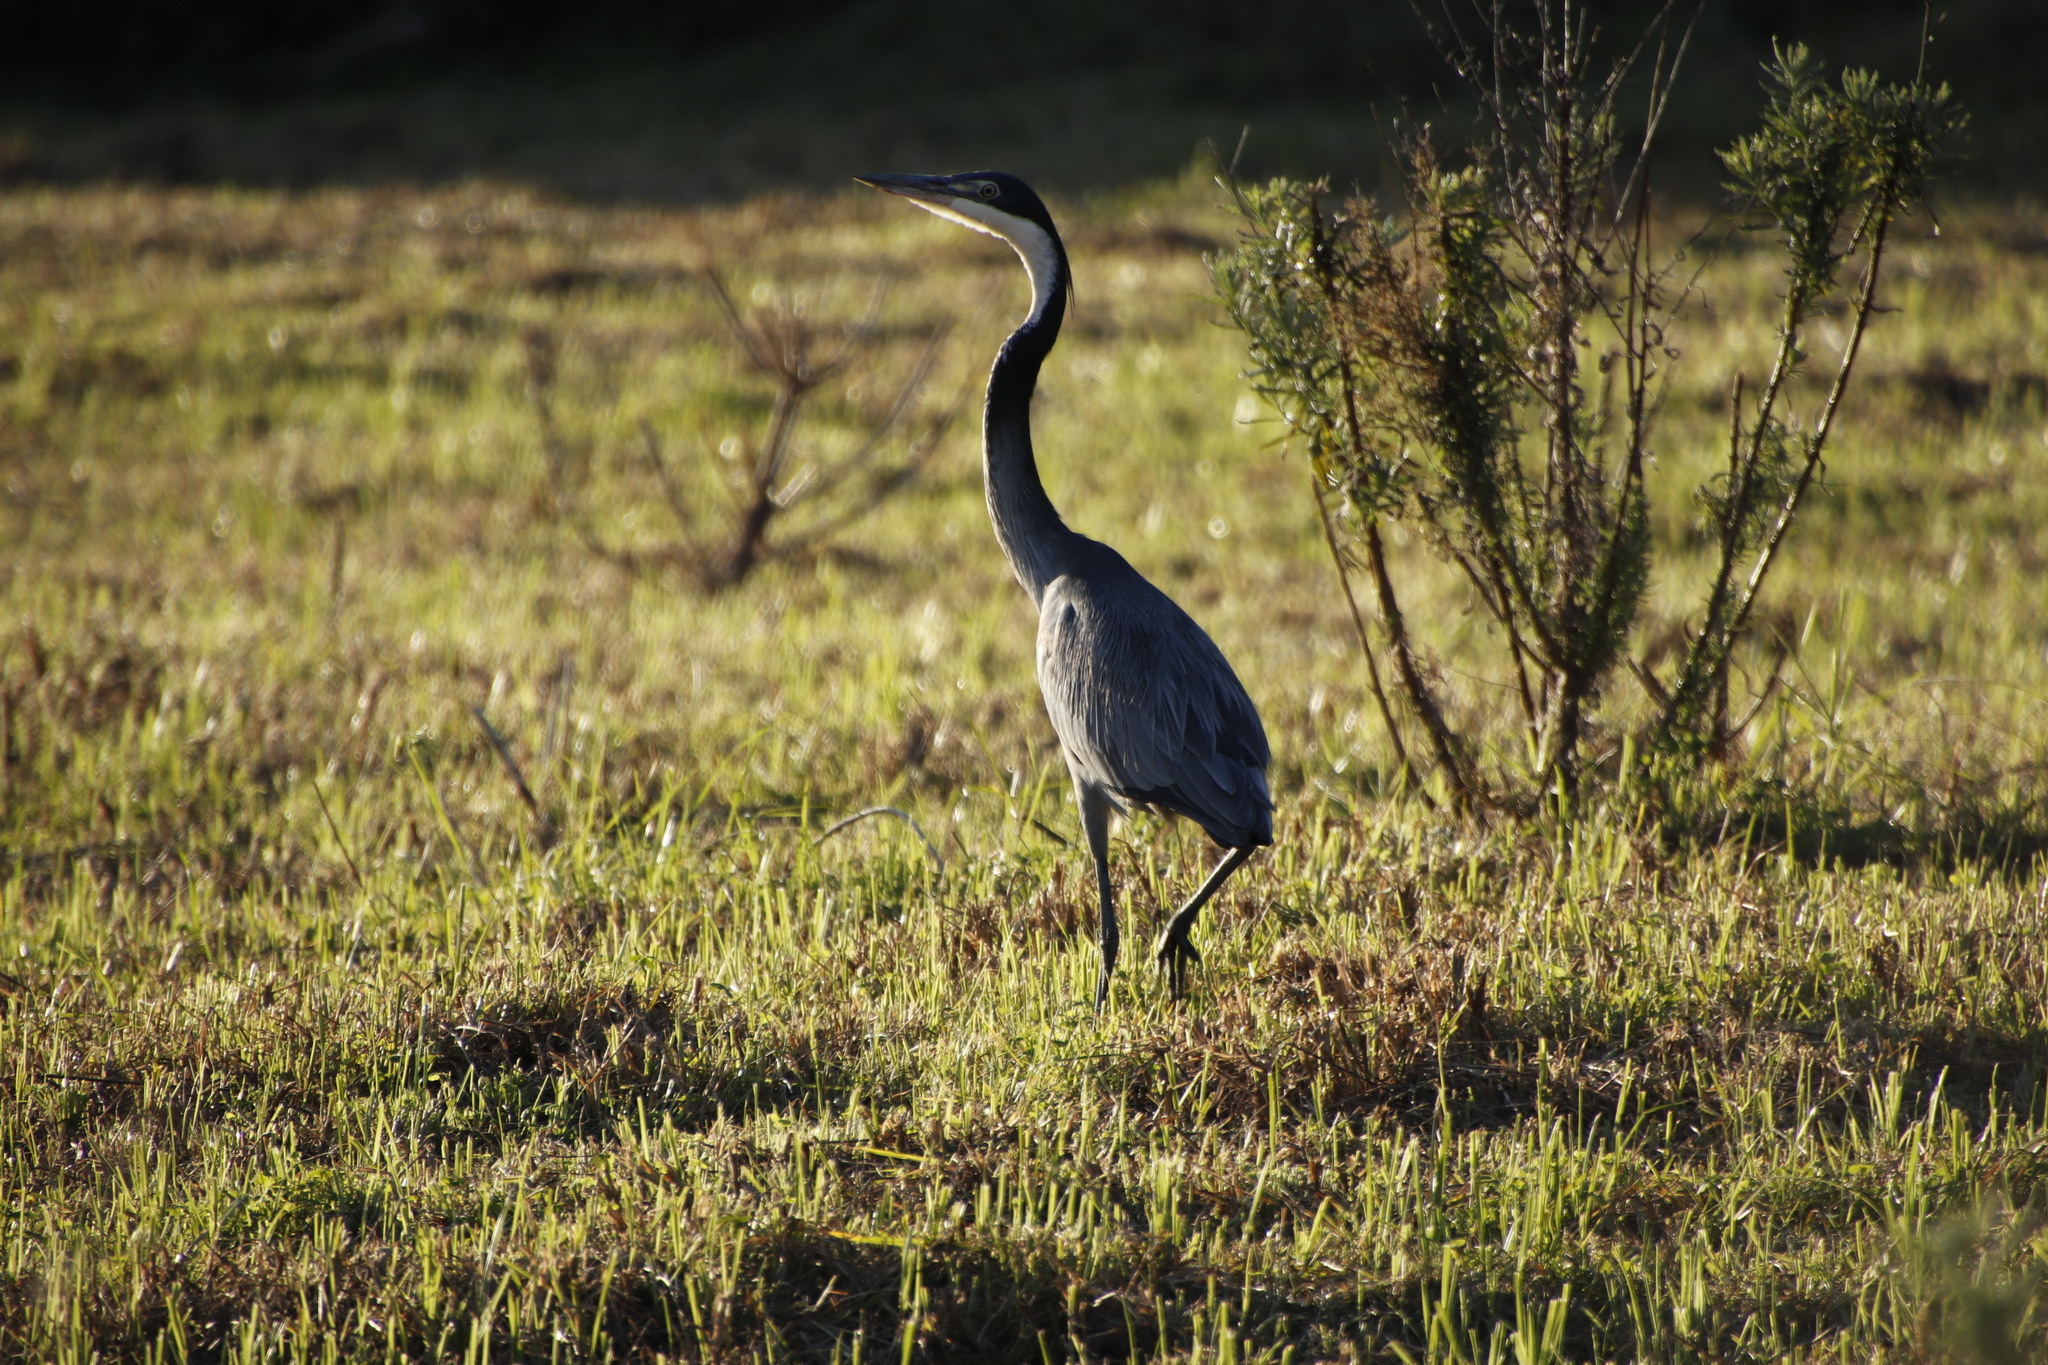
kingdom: Animalia
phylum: Chordata
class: Aves
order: Pelecaniformes
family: Ardeidae
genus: Ardea
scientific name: Ardea melanocephala
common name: Black-headed heron
